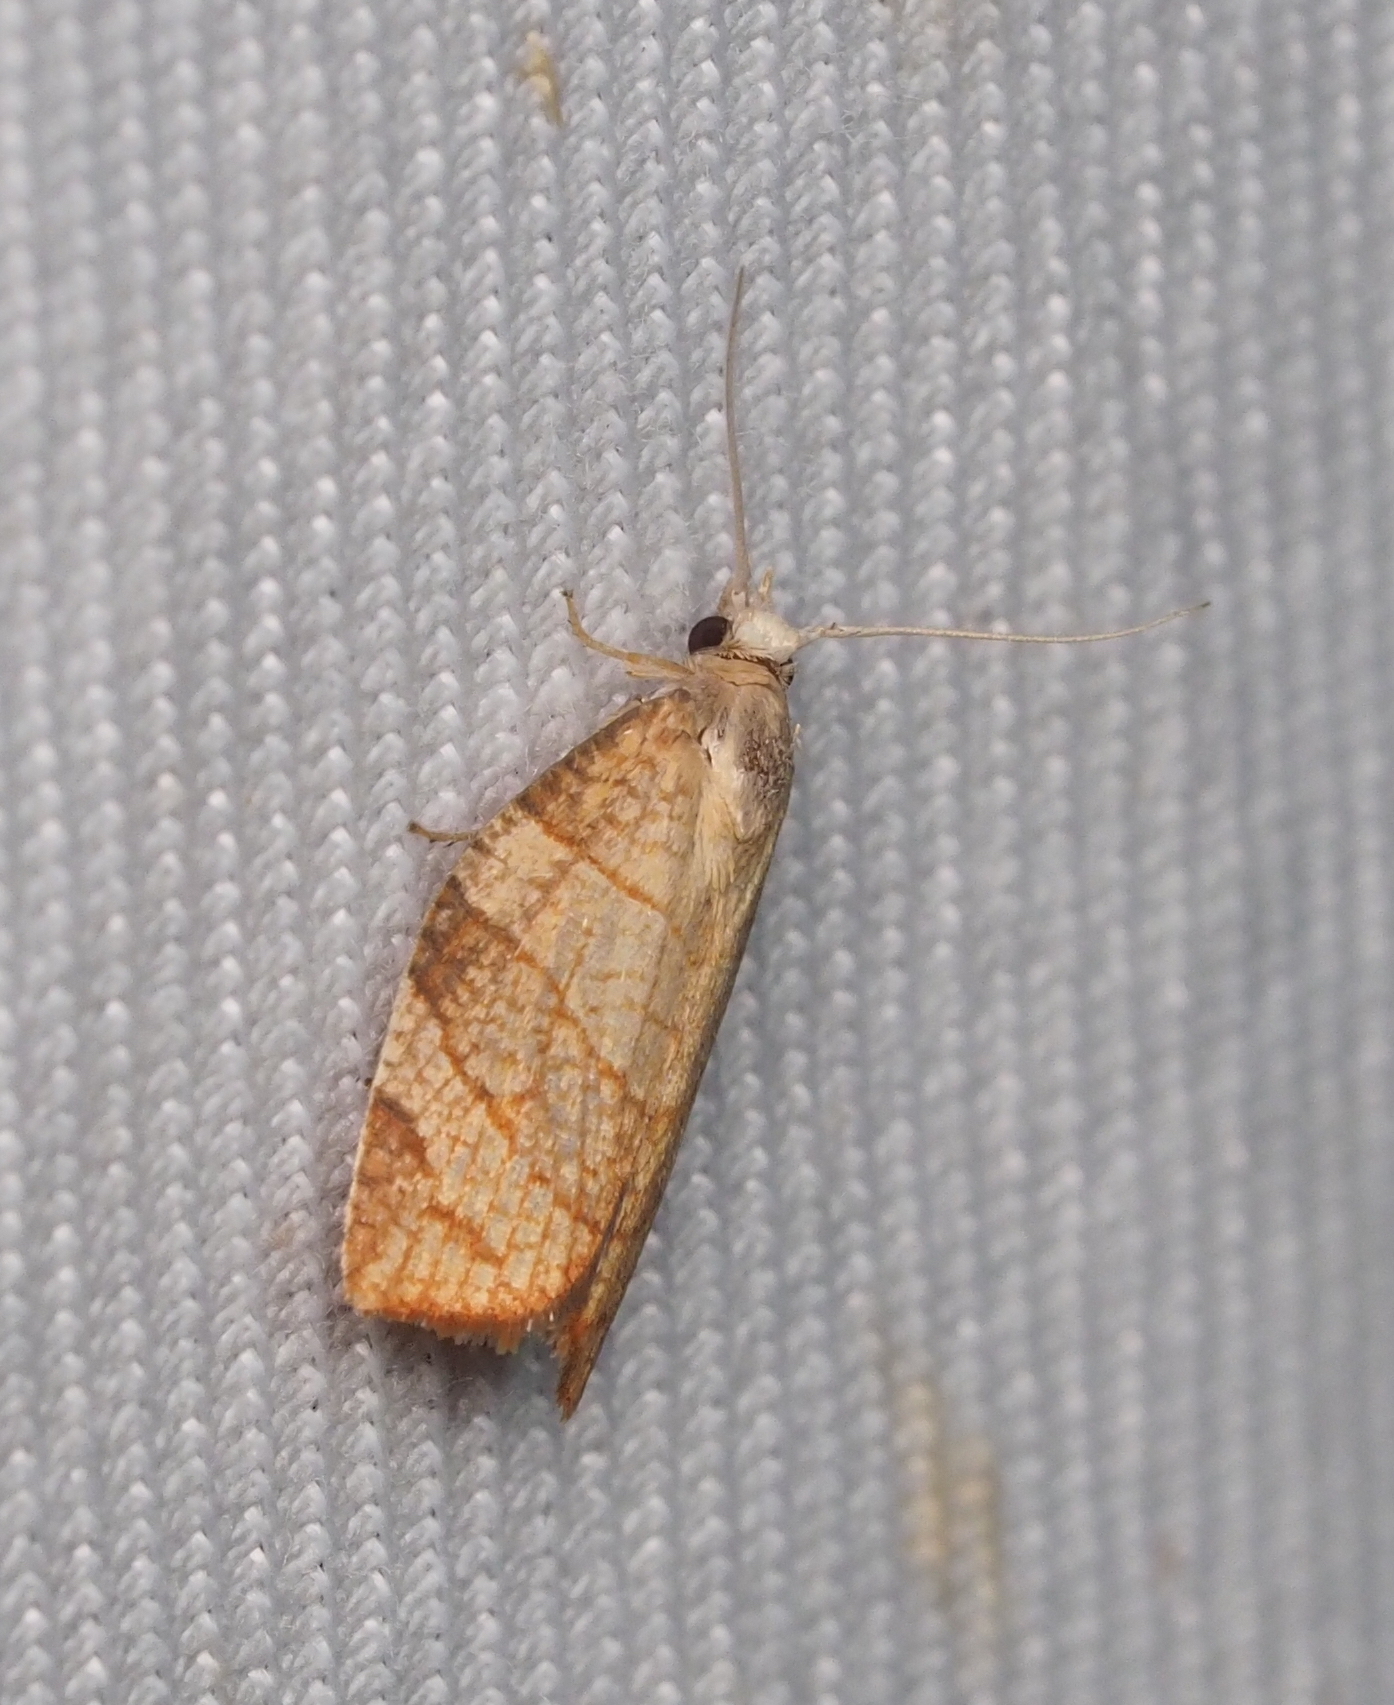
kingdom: Animalia
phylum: Arthropoda
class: Insecta
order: Lepidoptera
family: Tortricidae
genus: Pandemis
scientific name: Pandemis corylana
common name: Chequered fruit-tree tortrix
